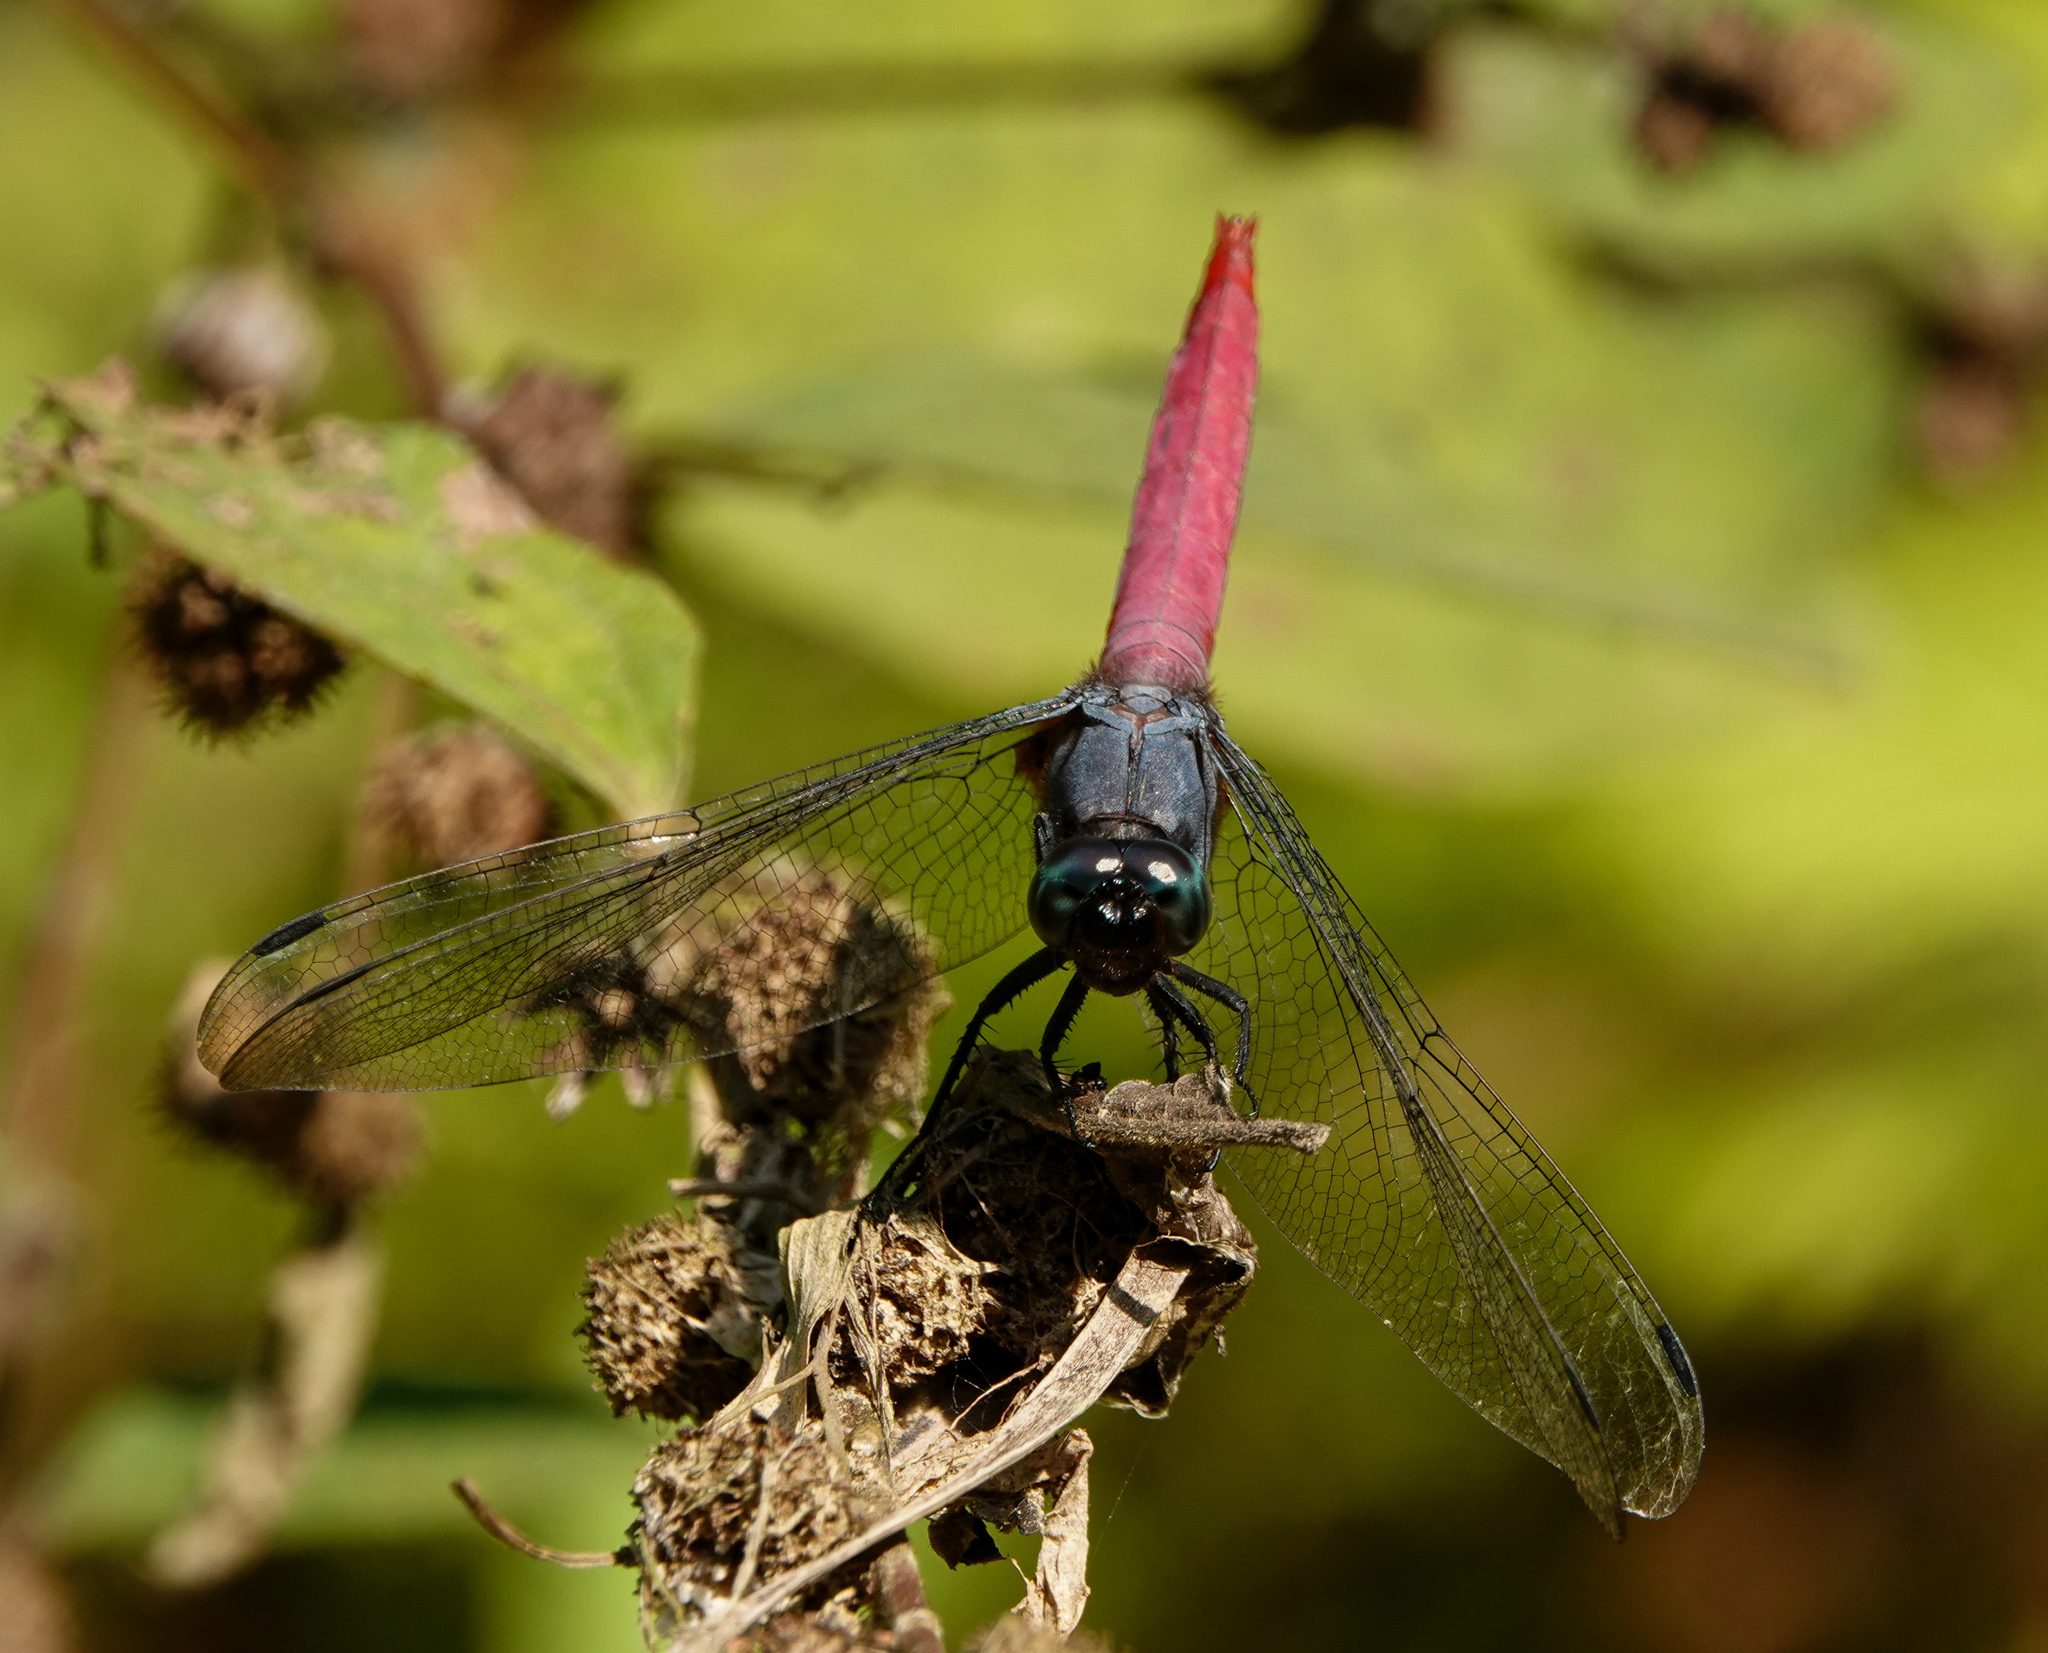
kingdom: Animalia
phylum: Arthropoda
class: Insecta
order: Odonata
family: Libellulidae
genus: Orthetrum
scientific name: Orthetrum pruinosum
